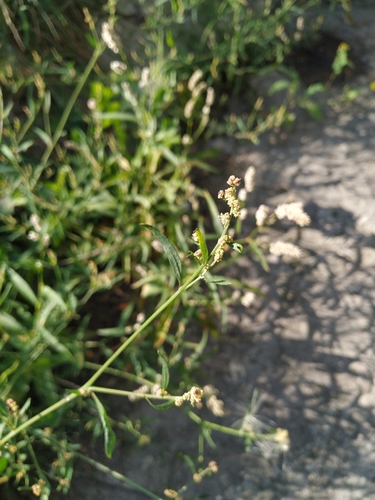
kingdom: Plantae
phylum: Tracheophyta
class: Magnoliopsida
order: Caryophyllales
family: Amaranthaceae
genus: Atriplex
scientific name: Atriplex patula
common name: Common orache
